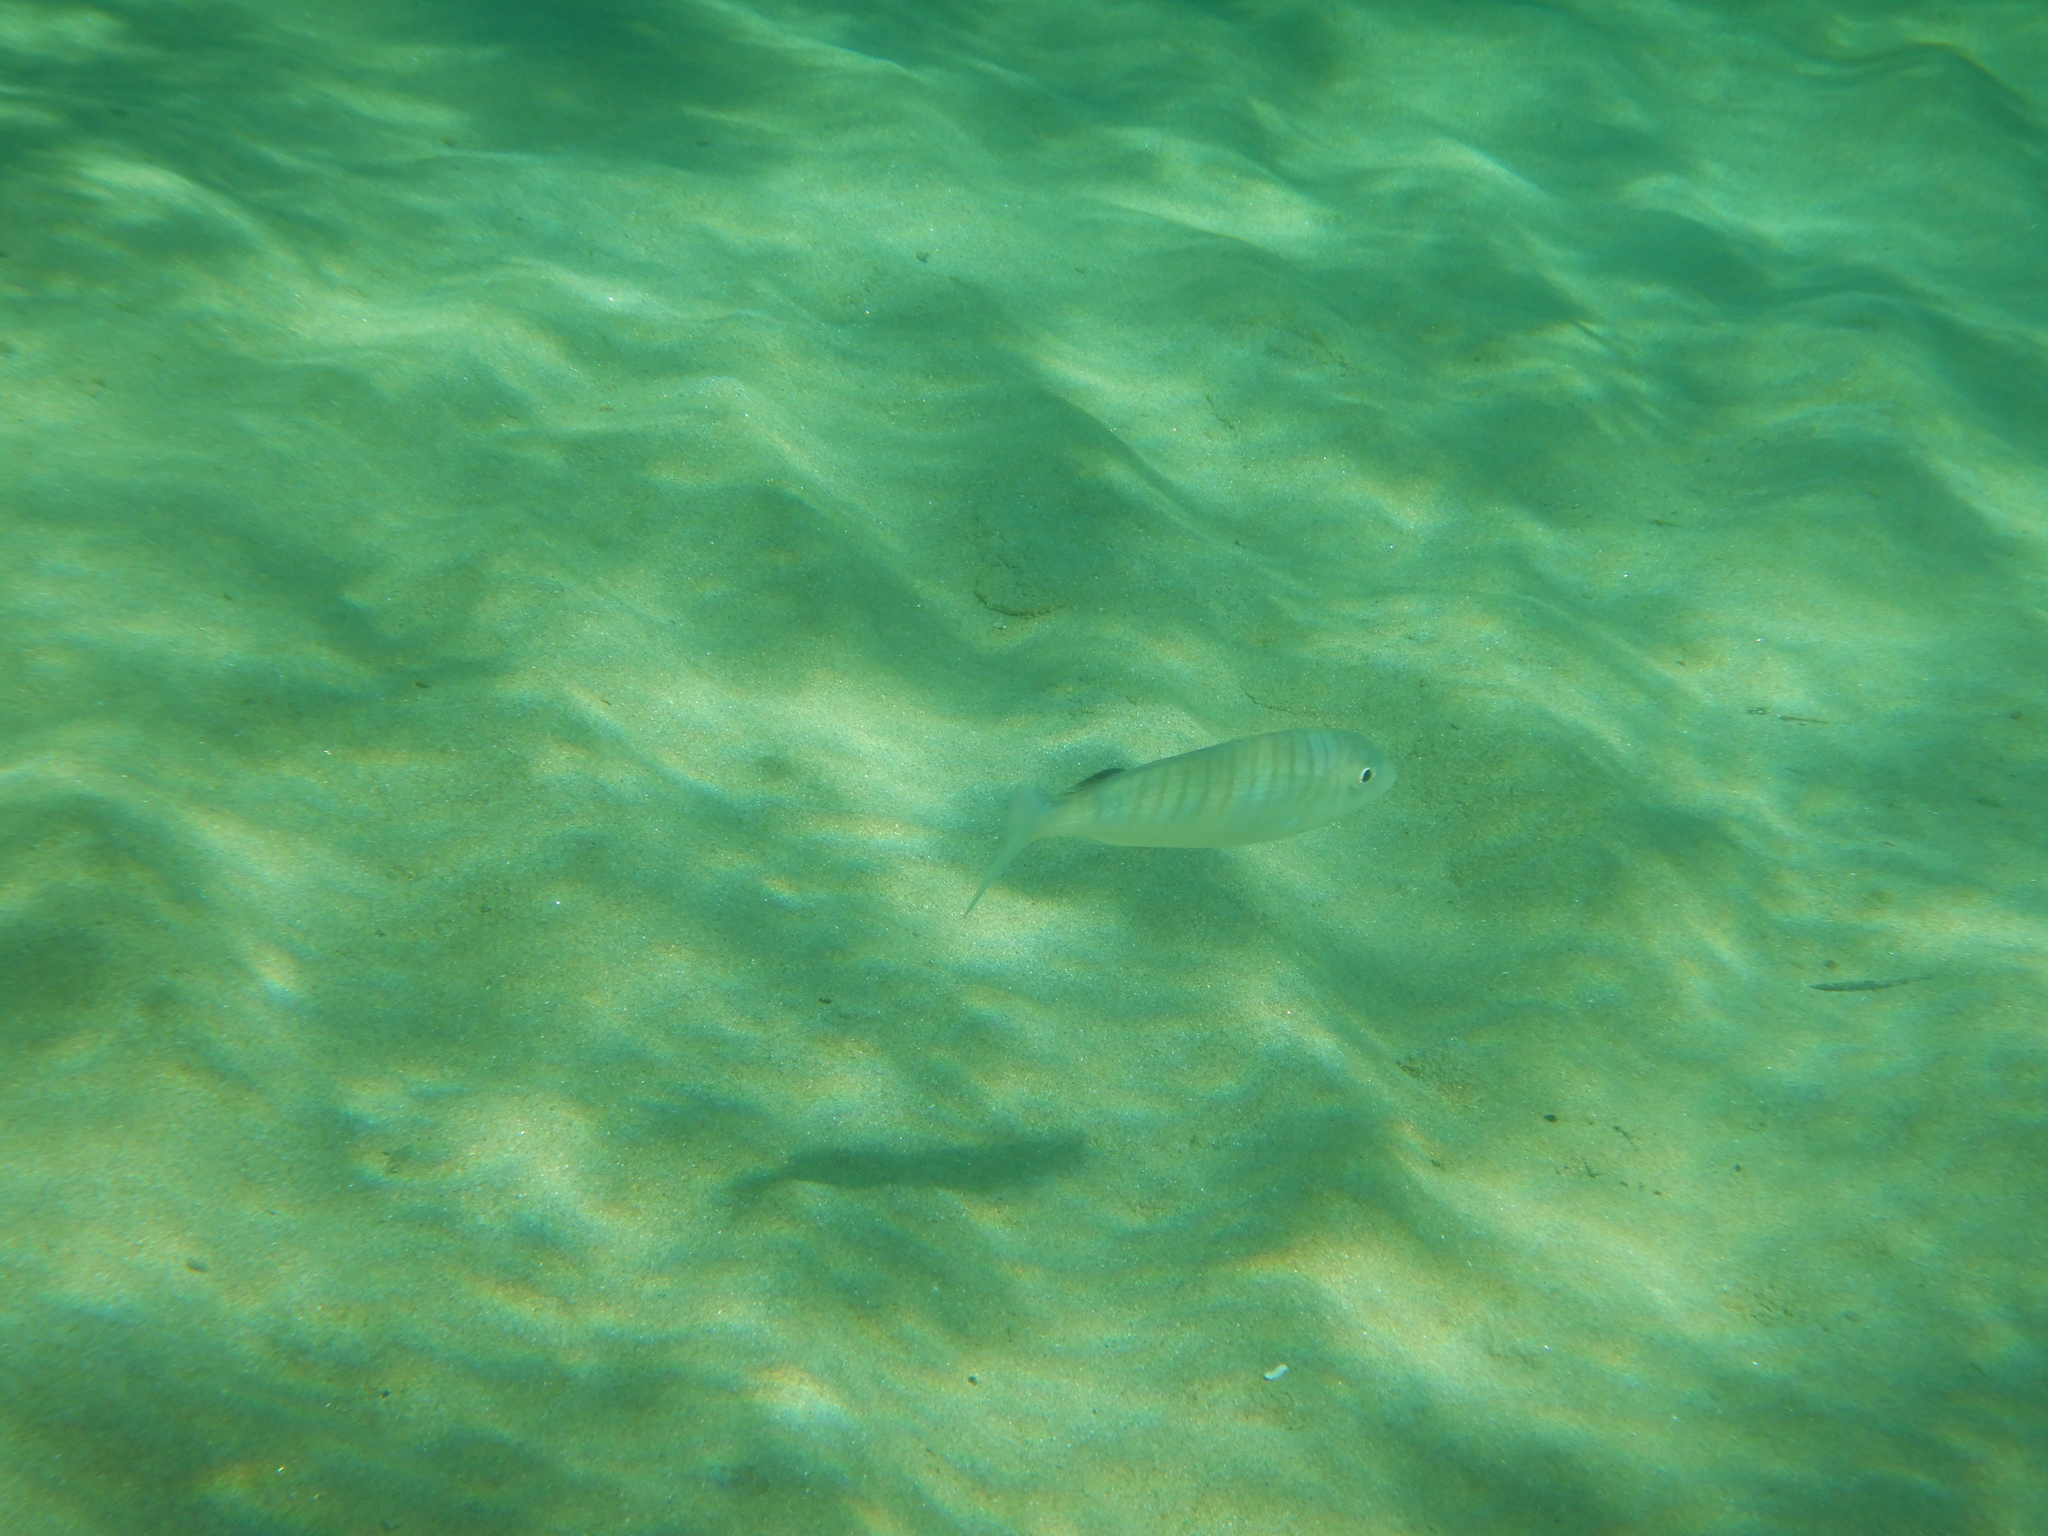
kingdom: Animalia
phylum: Chordata
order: Perciformes
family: Sparidae
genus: Lithognathus
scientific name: Lithognathus mormyrus
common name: Sand steenbras
